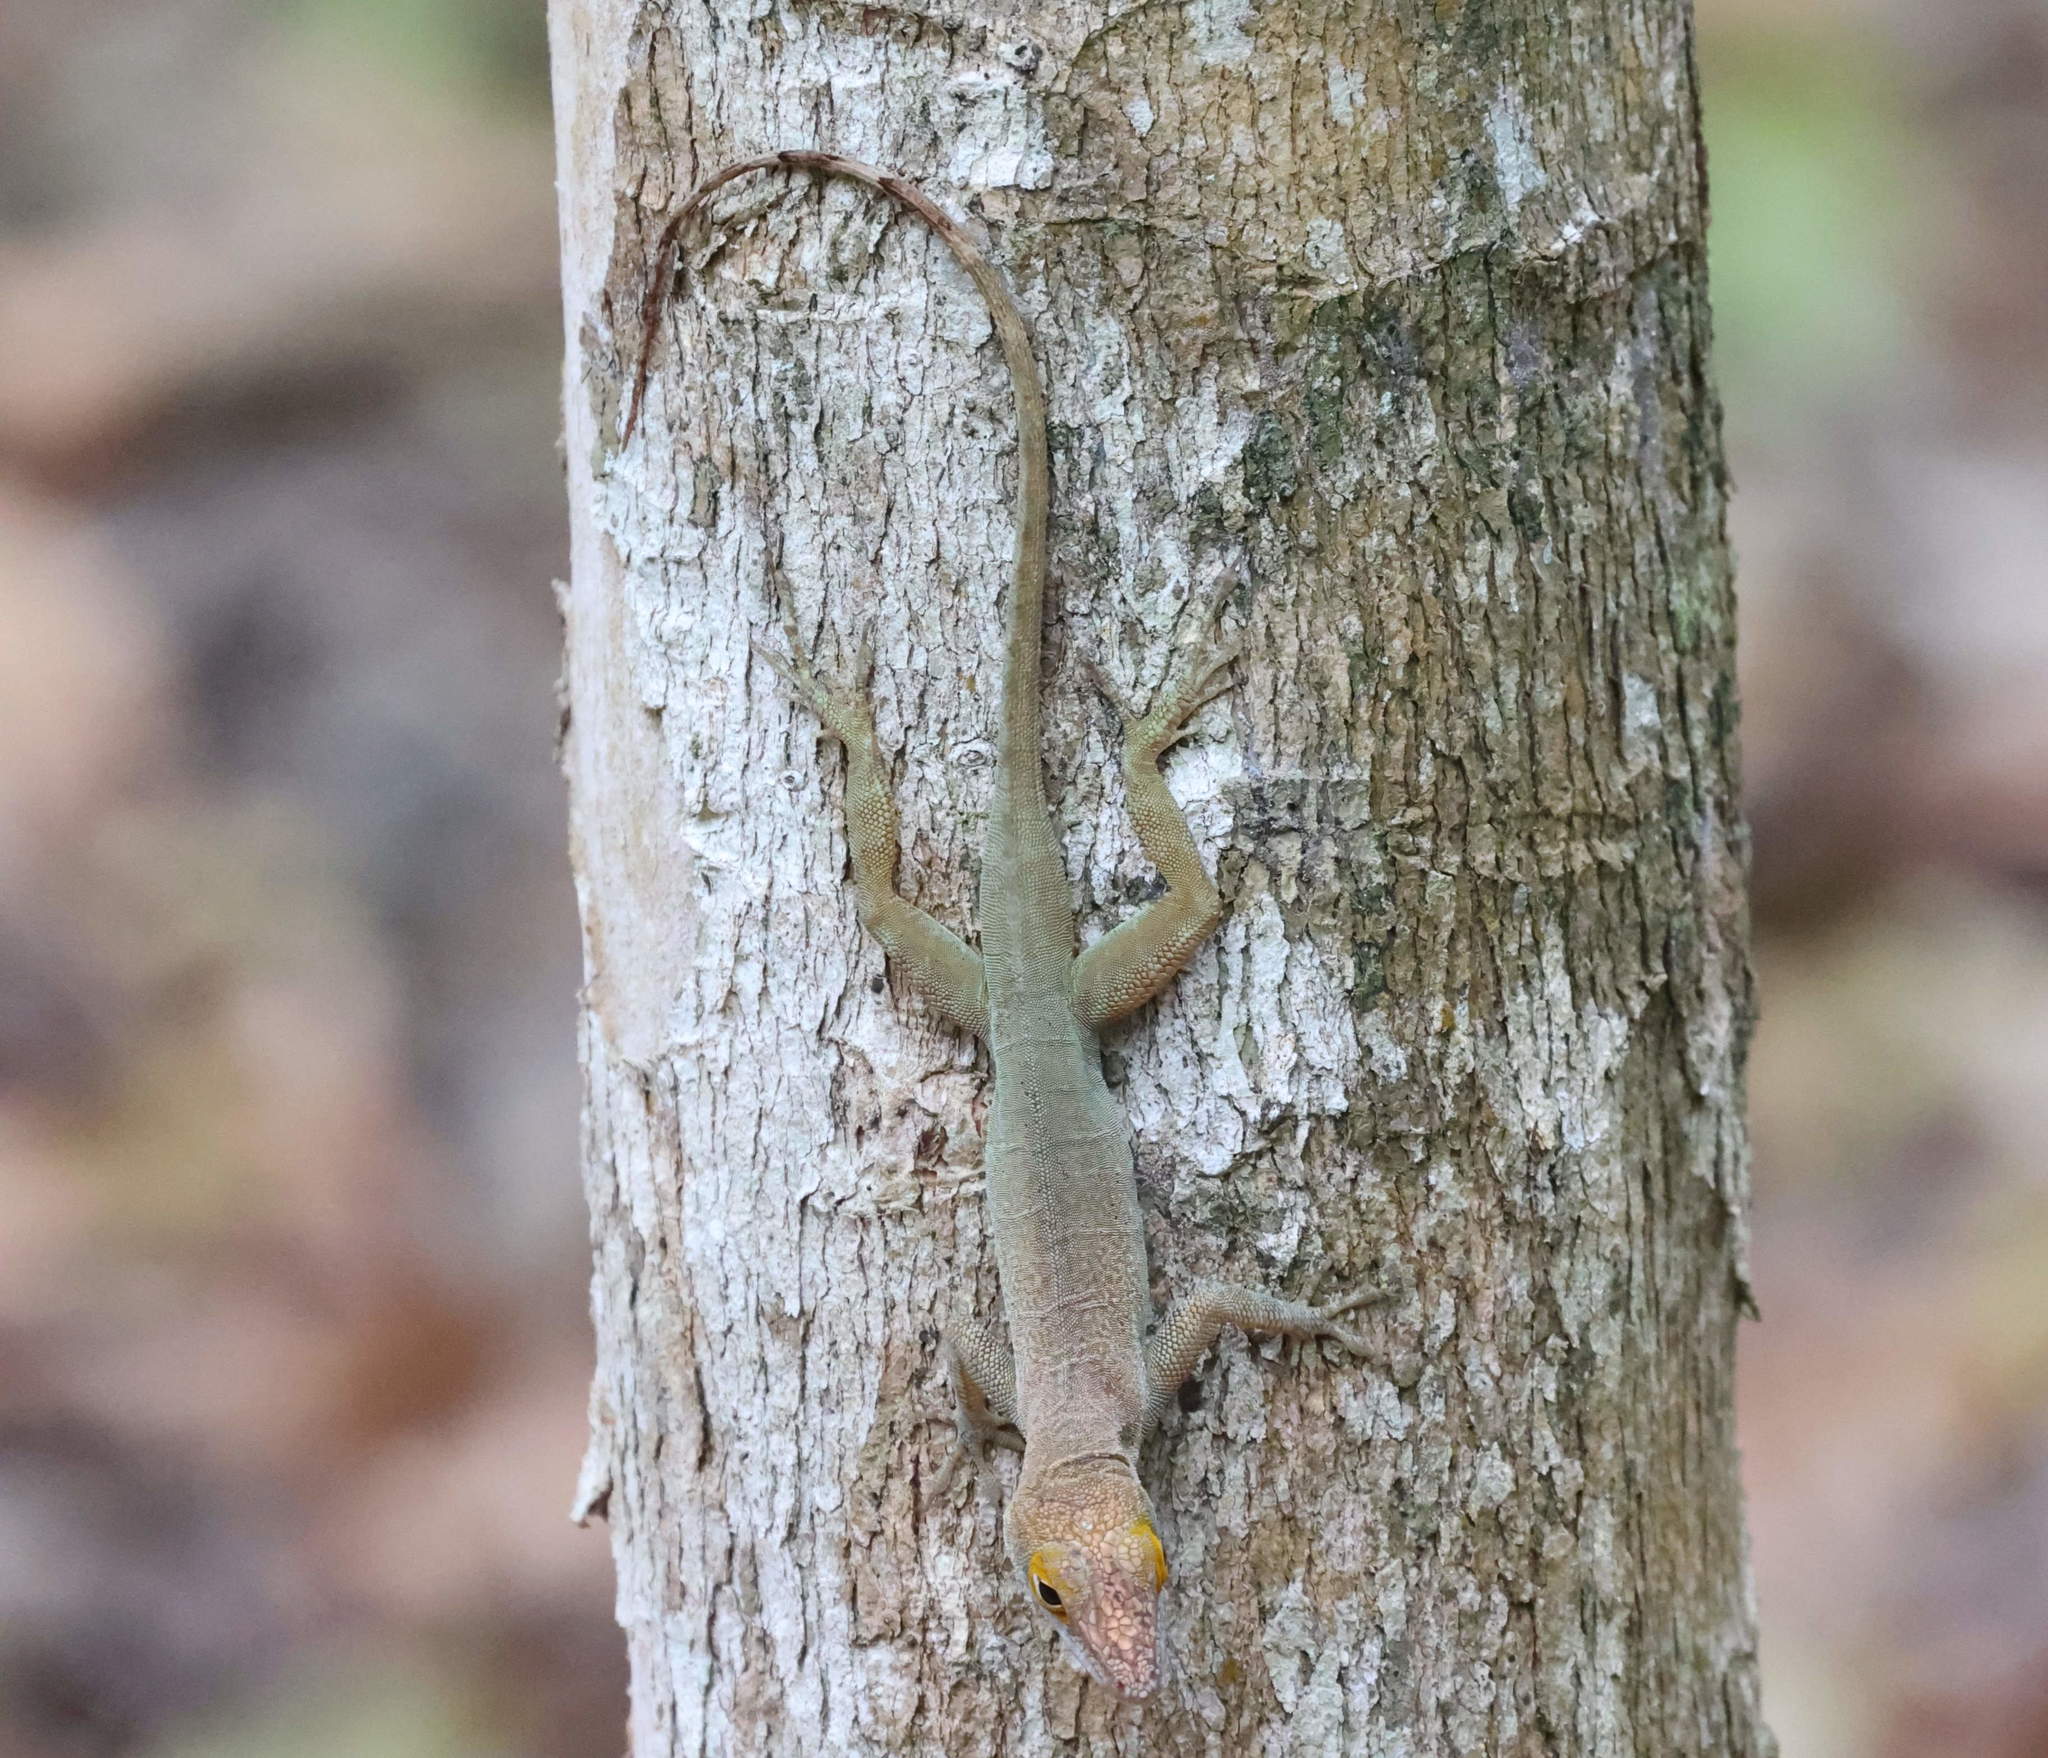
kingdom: Animalia
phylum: Chordata
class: Squamata
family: Dactyloidae
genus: Anolis
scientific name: Anolis marmoratus
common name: Guadeloupe anole
